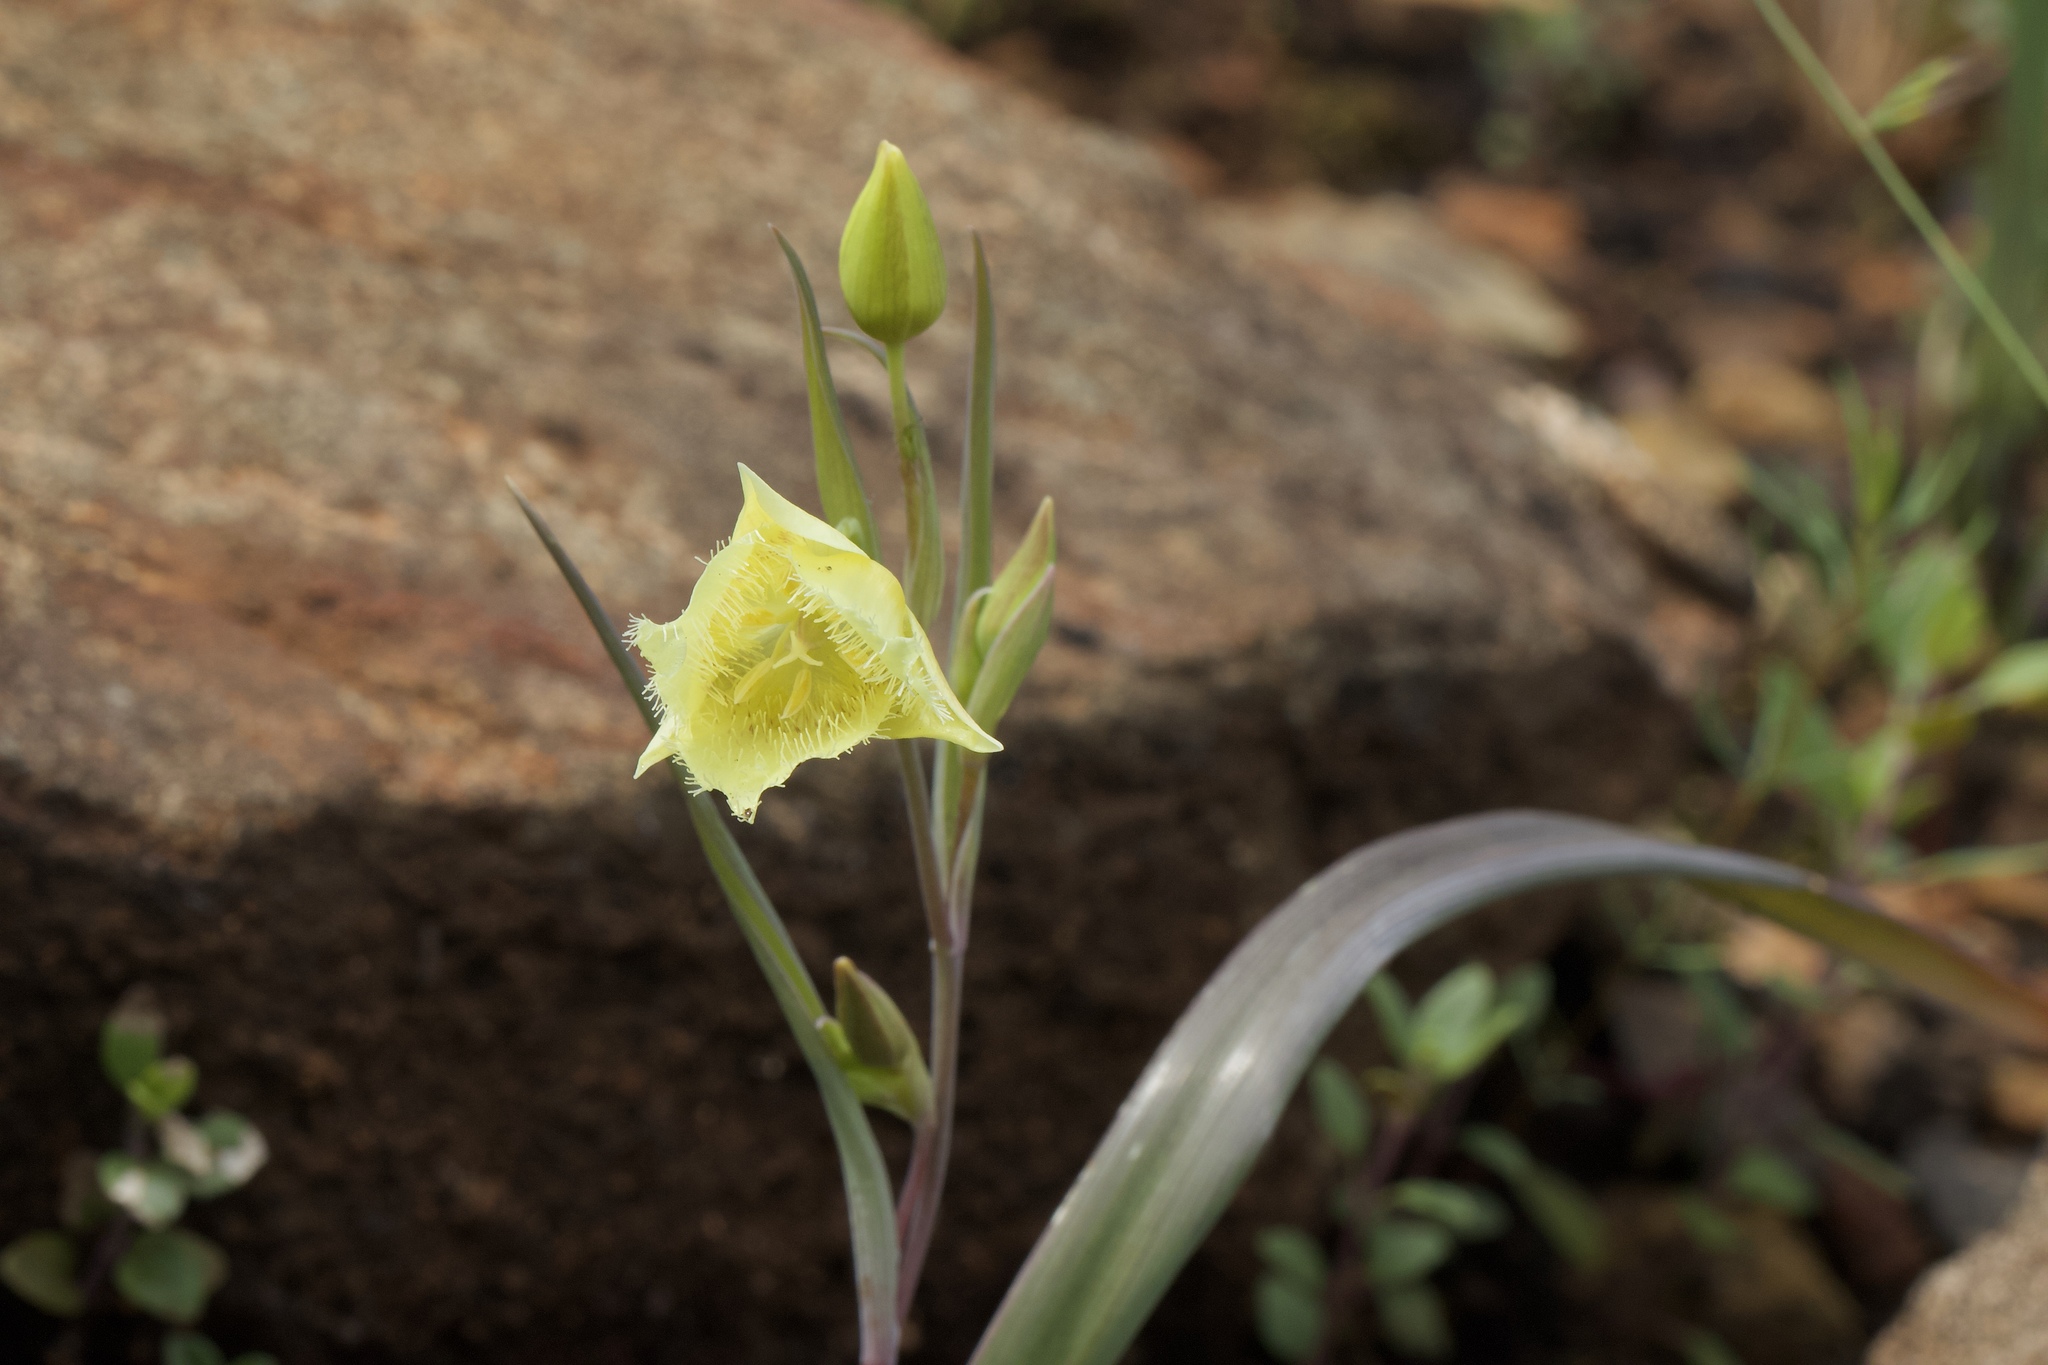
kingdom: Plantae
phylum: Tracheophyta
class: Liliopsida
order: Liliales
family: Liliaceae
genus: Calochortus
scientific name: Calochortus
